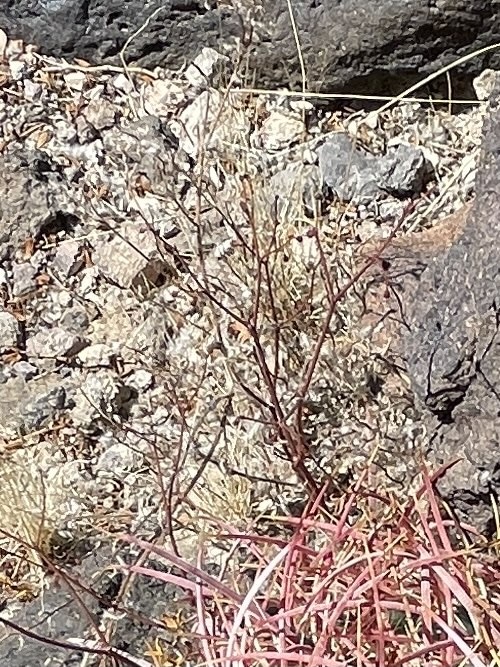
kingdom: Plantae
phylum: Tracheophyta
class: Magnoliopsida
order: Caryophyllales
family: Polygonaceae
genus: Eriogonum
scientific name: Eriogonum deflexum
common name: Skeleton-weed
